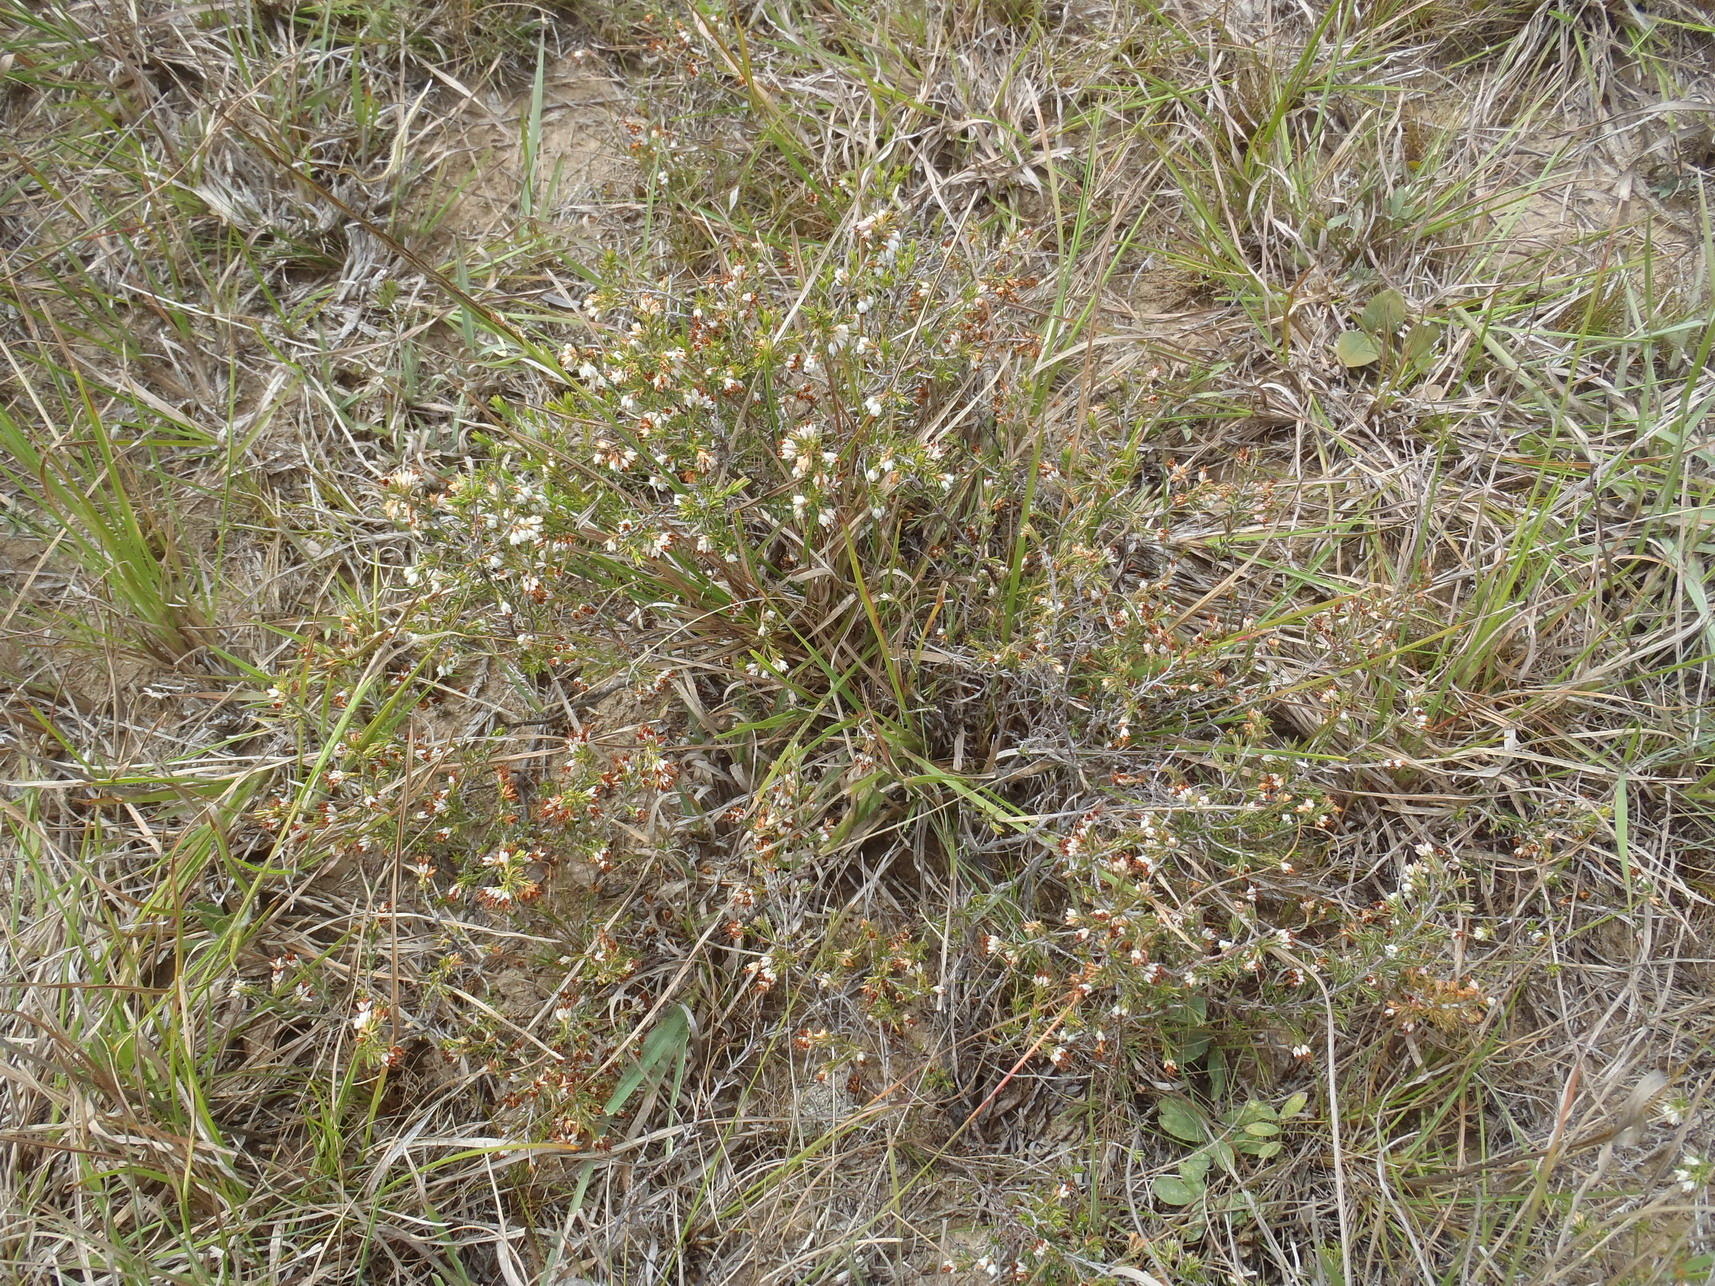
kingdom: Plantae
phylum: Tracheophyta
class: Magnoliopsida
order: Ericales
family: Ericaceae
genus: Erica
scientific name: Erica orientalis
